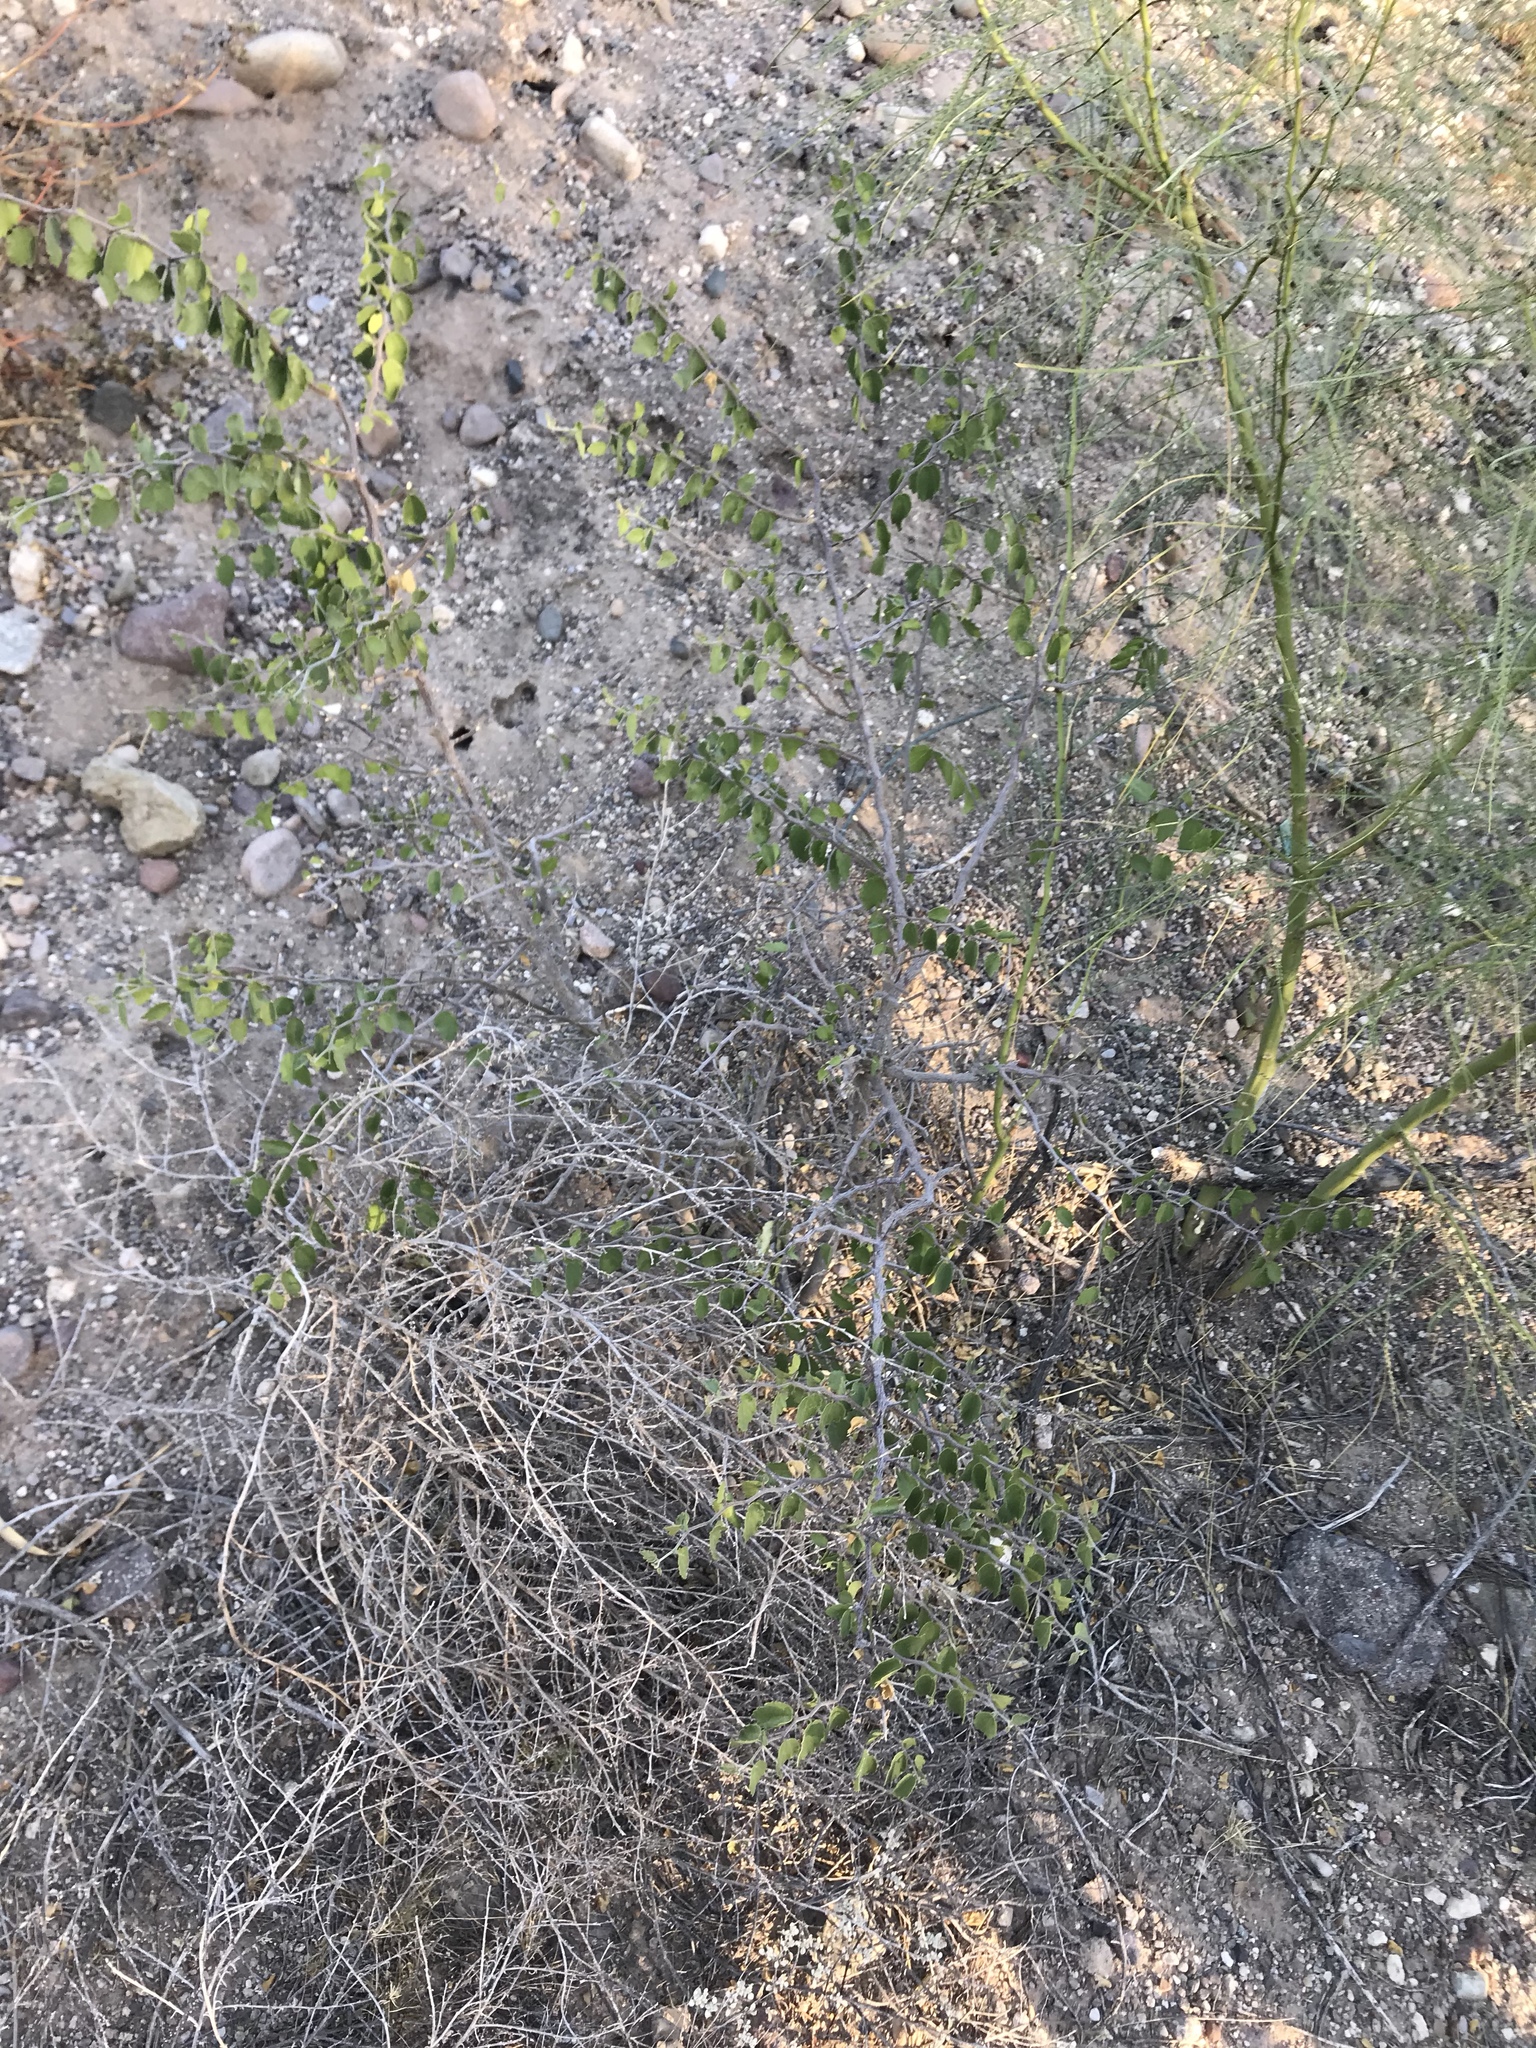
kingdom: Plantae
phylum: Tracheophyta
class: Magnoliopsida
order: Rosales
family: Cannabaceae
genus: Celtis
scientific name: Celtis pallida
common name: Desert hackberry
